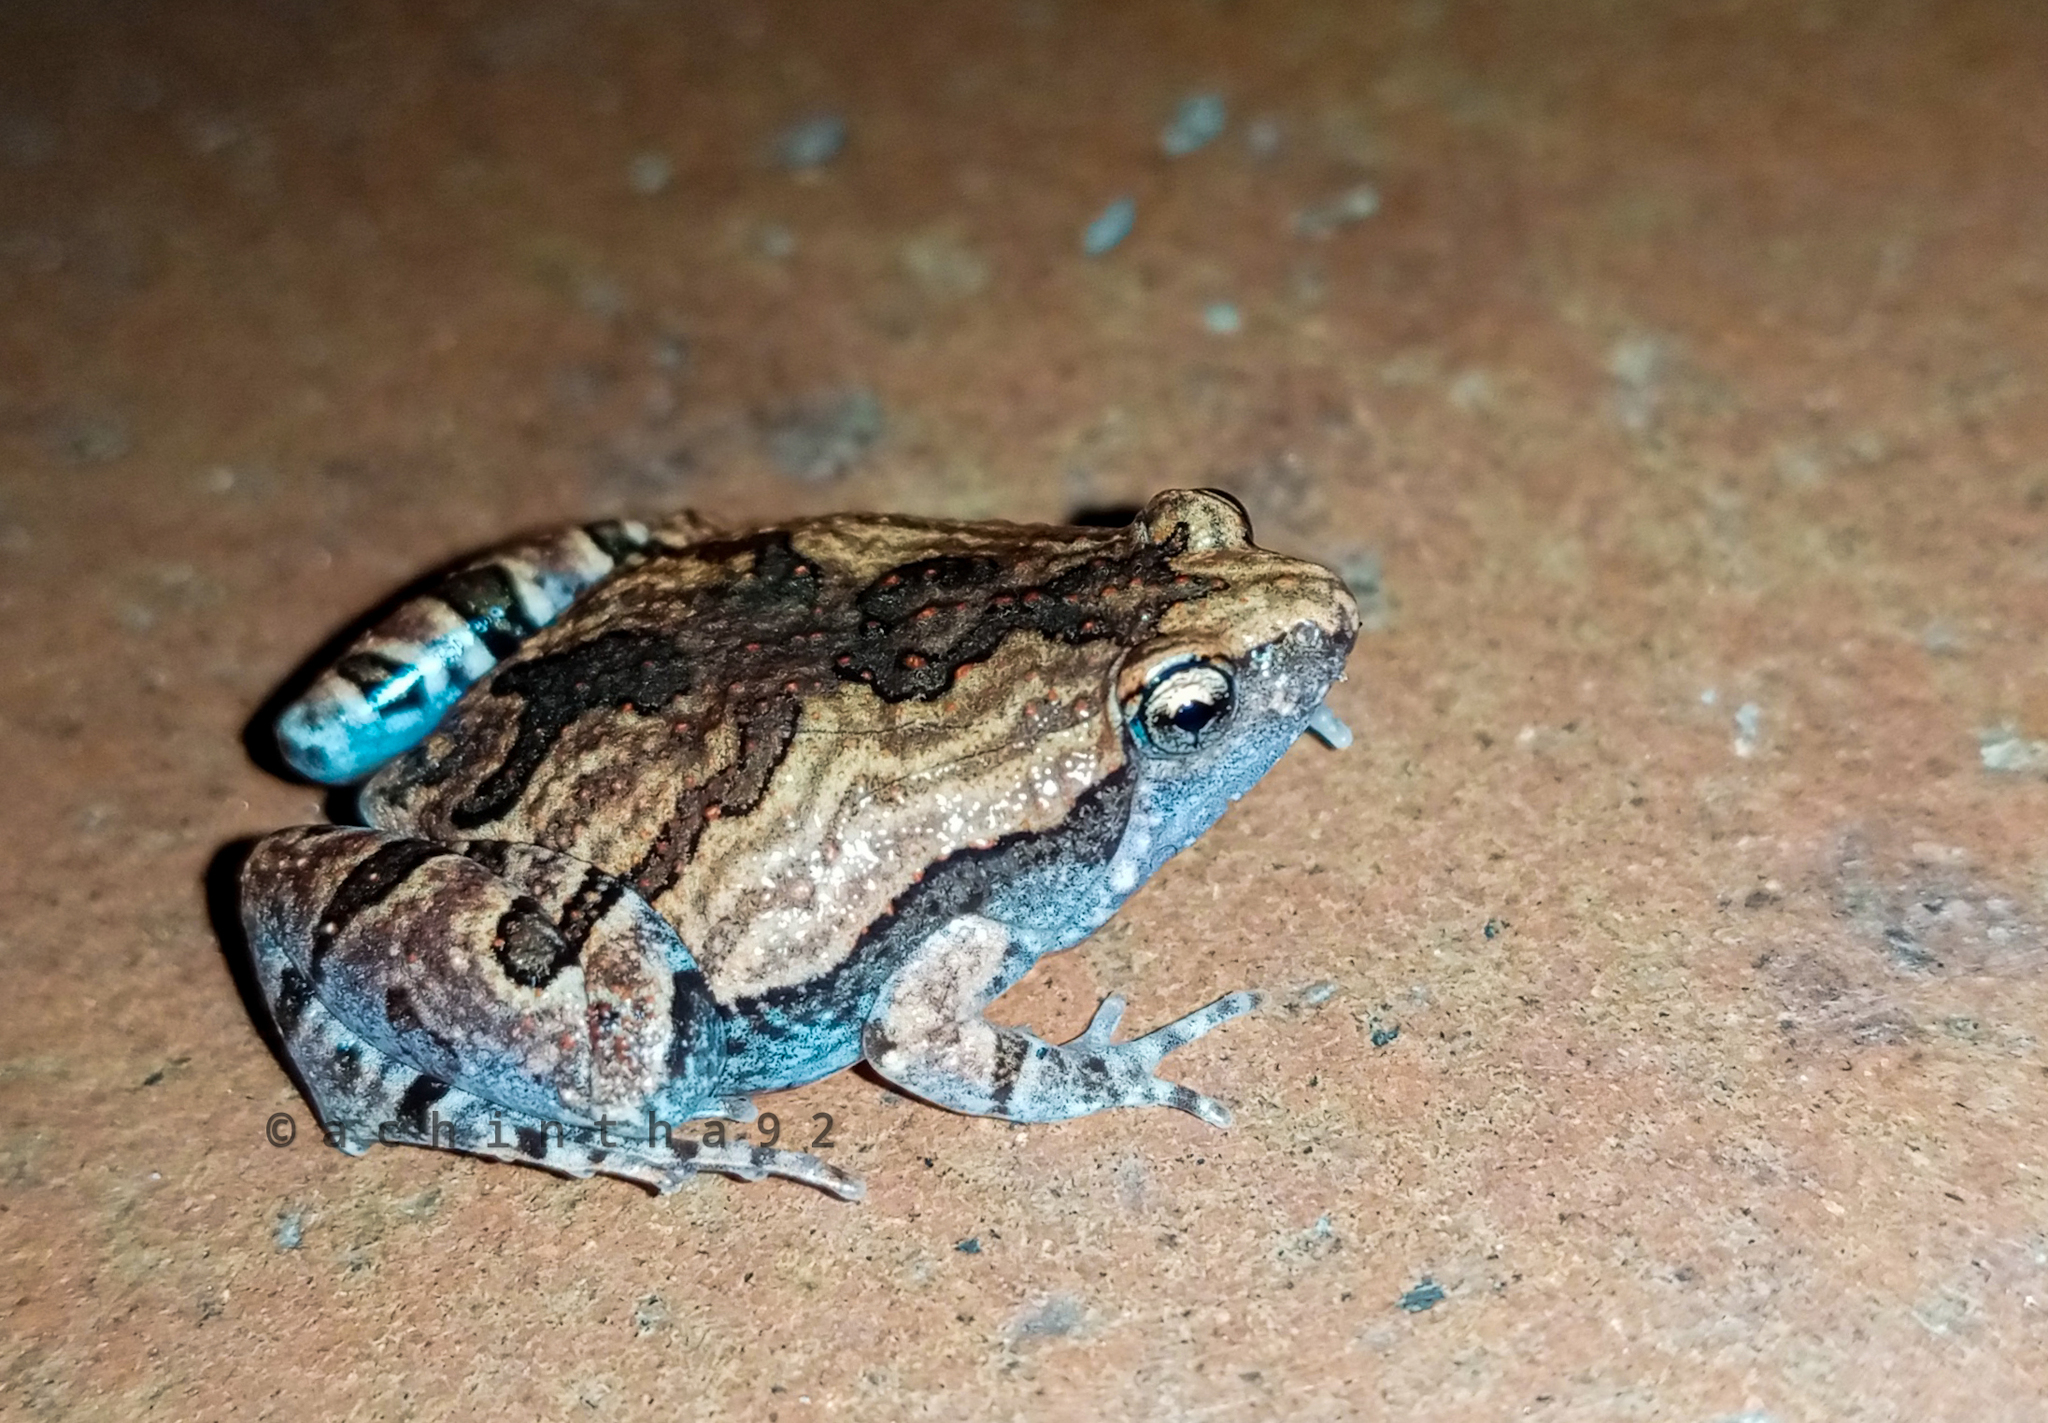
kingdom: Animalia
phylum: Chordata
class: Amphibia
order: Anura
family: Microhylidae
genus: Microhyla
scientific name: Microhyla ornata
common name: Ant frog
